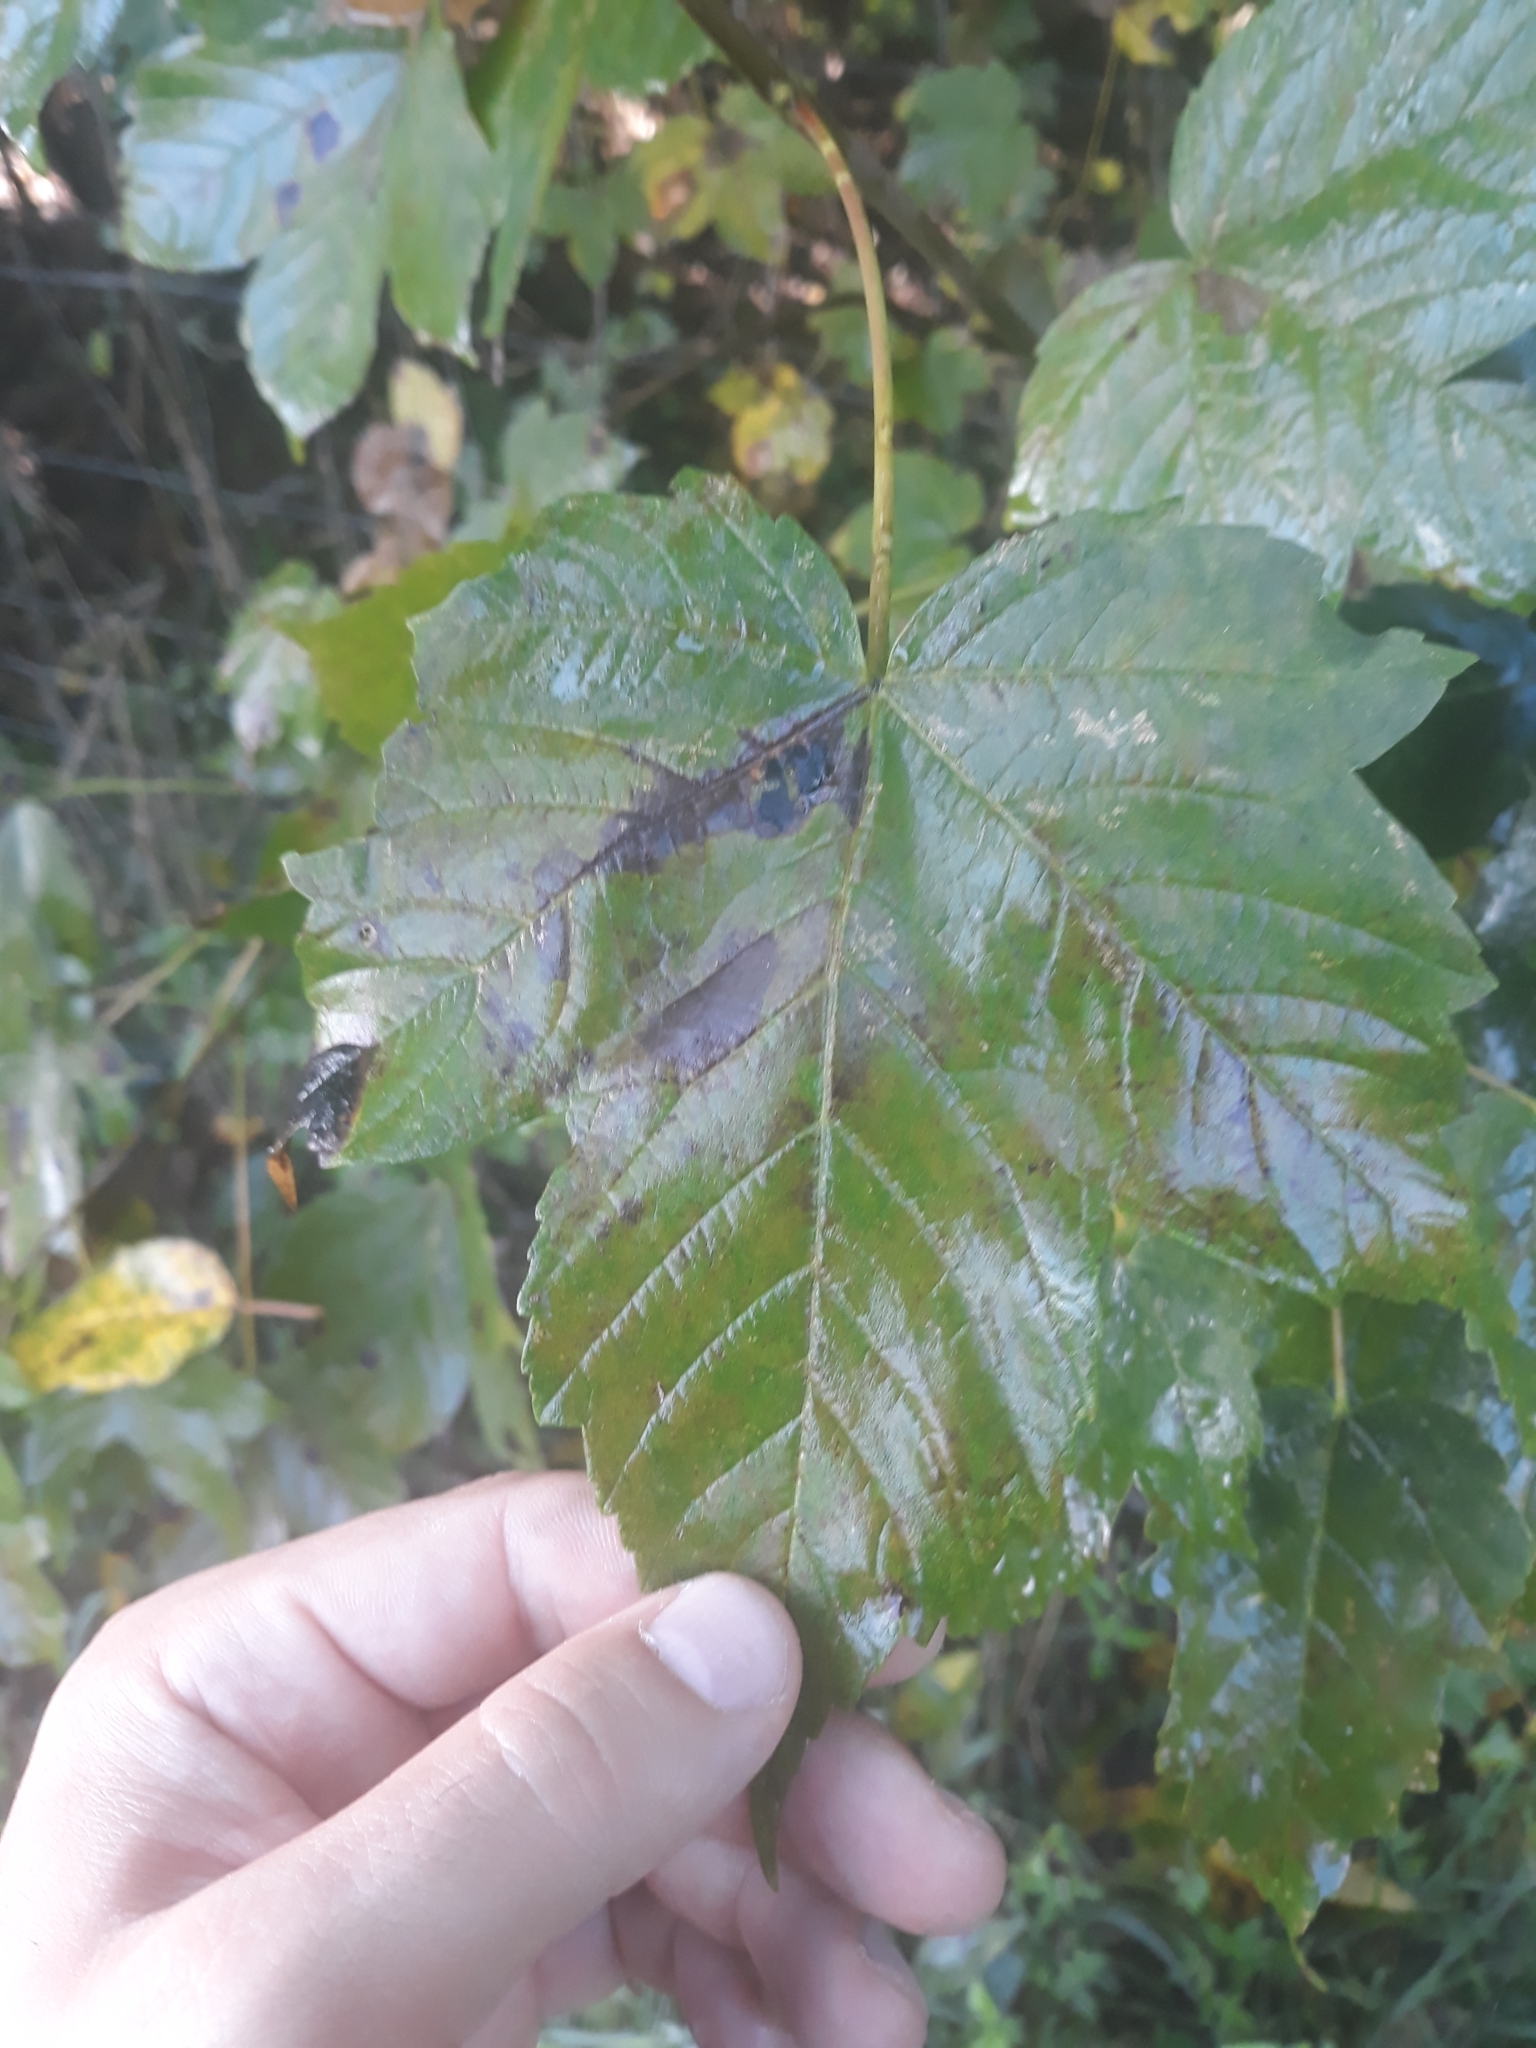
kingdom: Plantae
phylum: Tracheophyta
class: Magnoliopsida
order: Sapindales
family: Sapindaceae
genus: Acer
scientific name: Acer pseudoplatanus
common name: Sycamore
